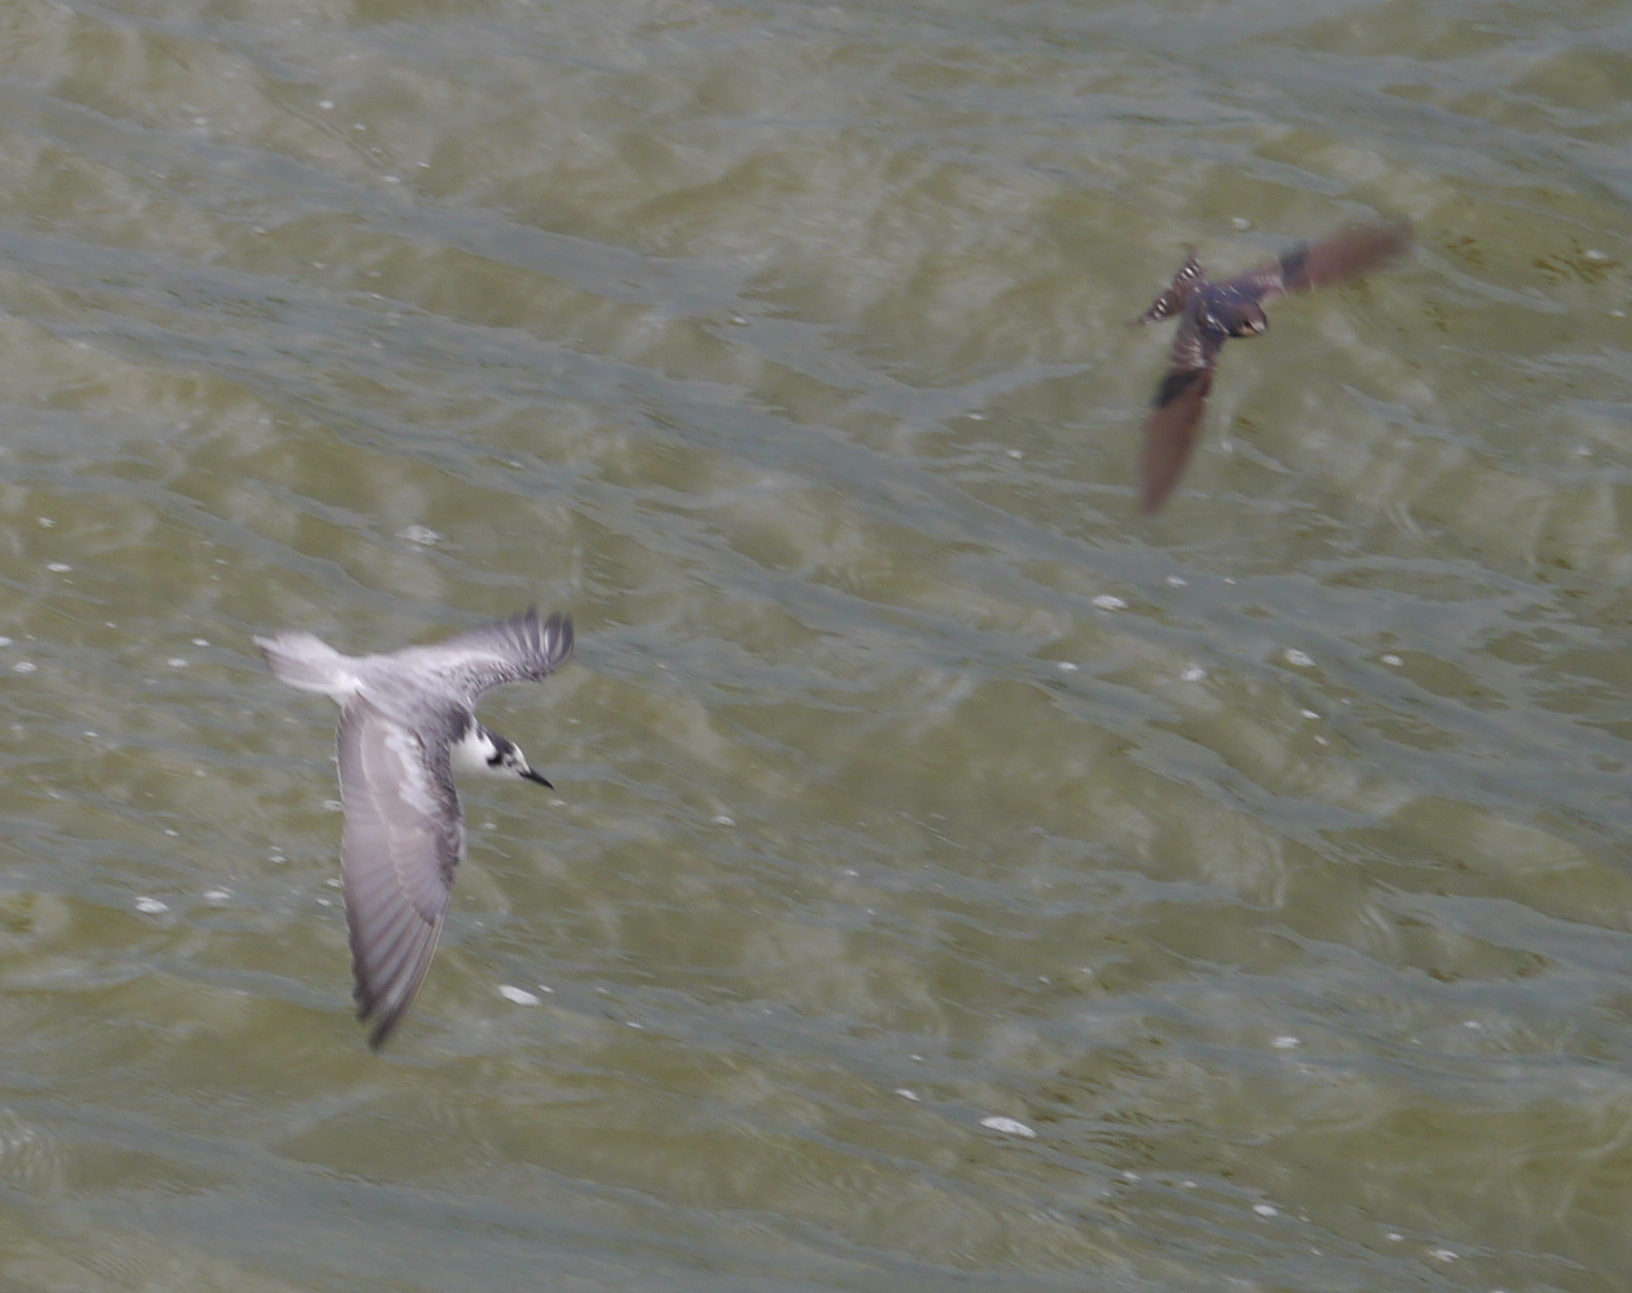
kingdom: Animalia
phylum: Chordata
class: Aves
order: Passeriformes
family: Hirundinidae
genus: Hirundo
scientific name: Hirundo rustica
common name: Barn swallow
